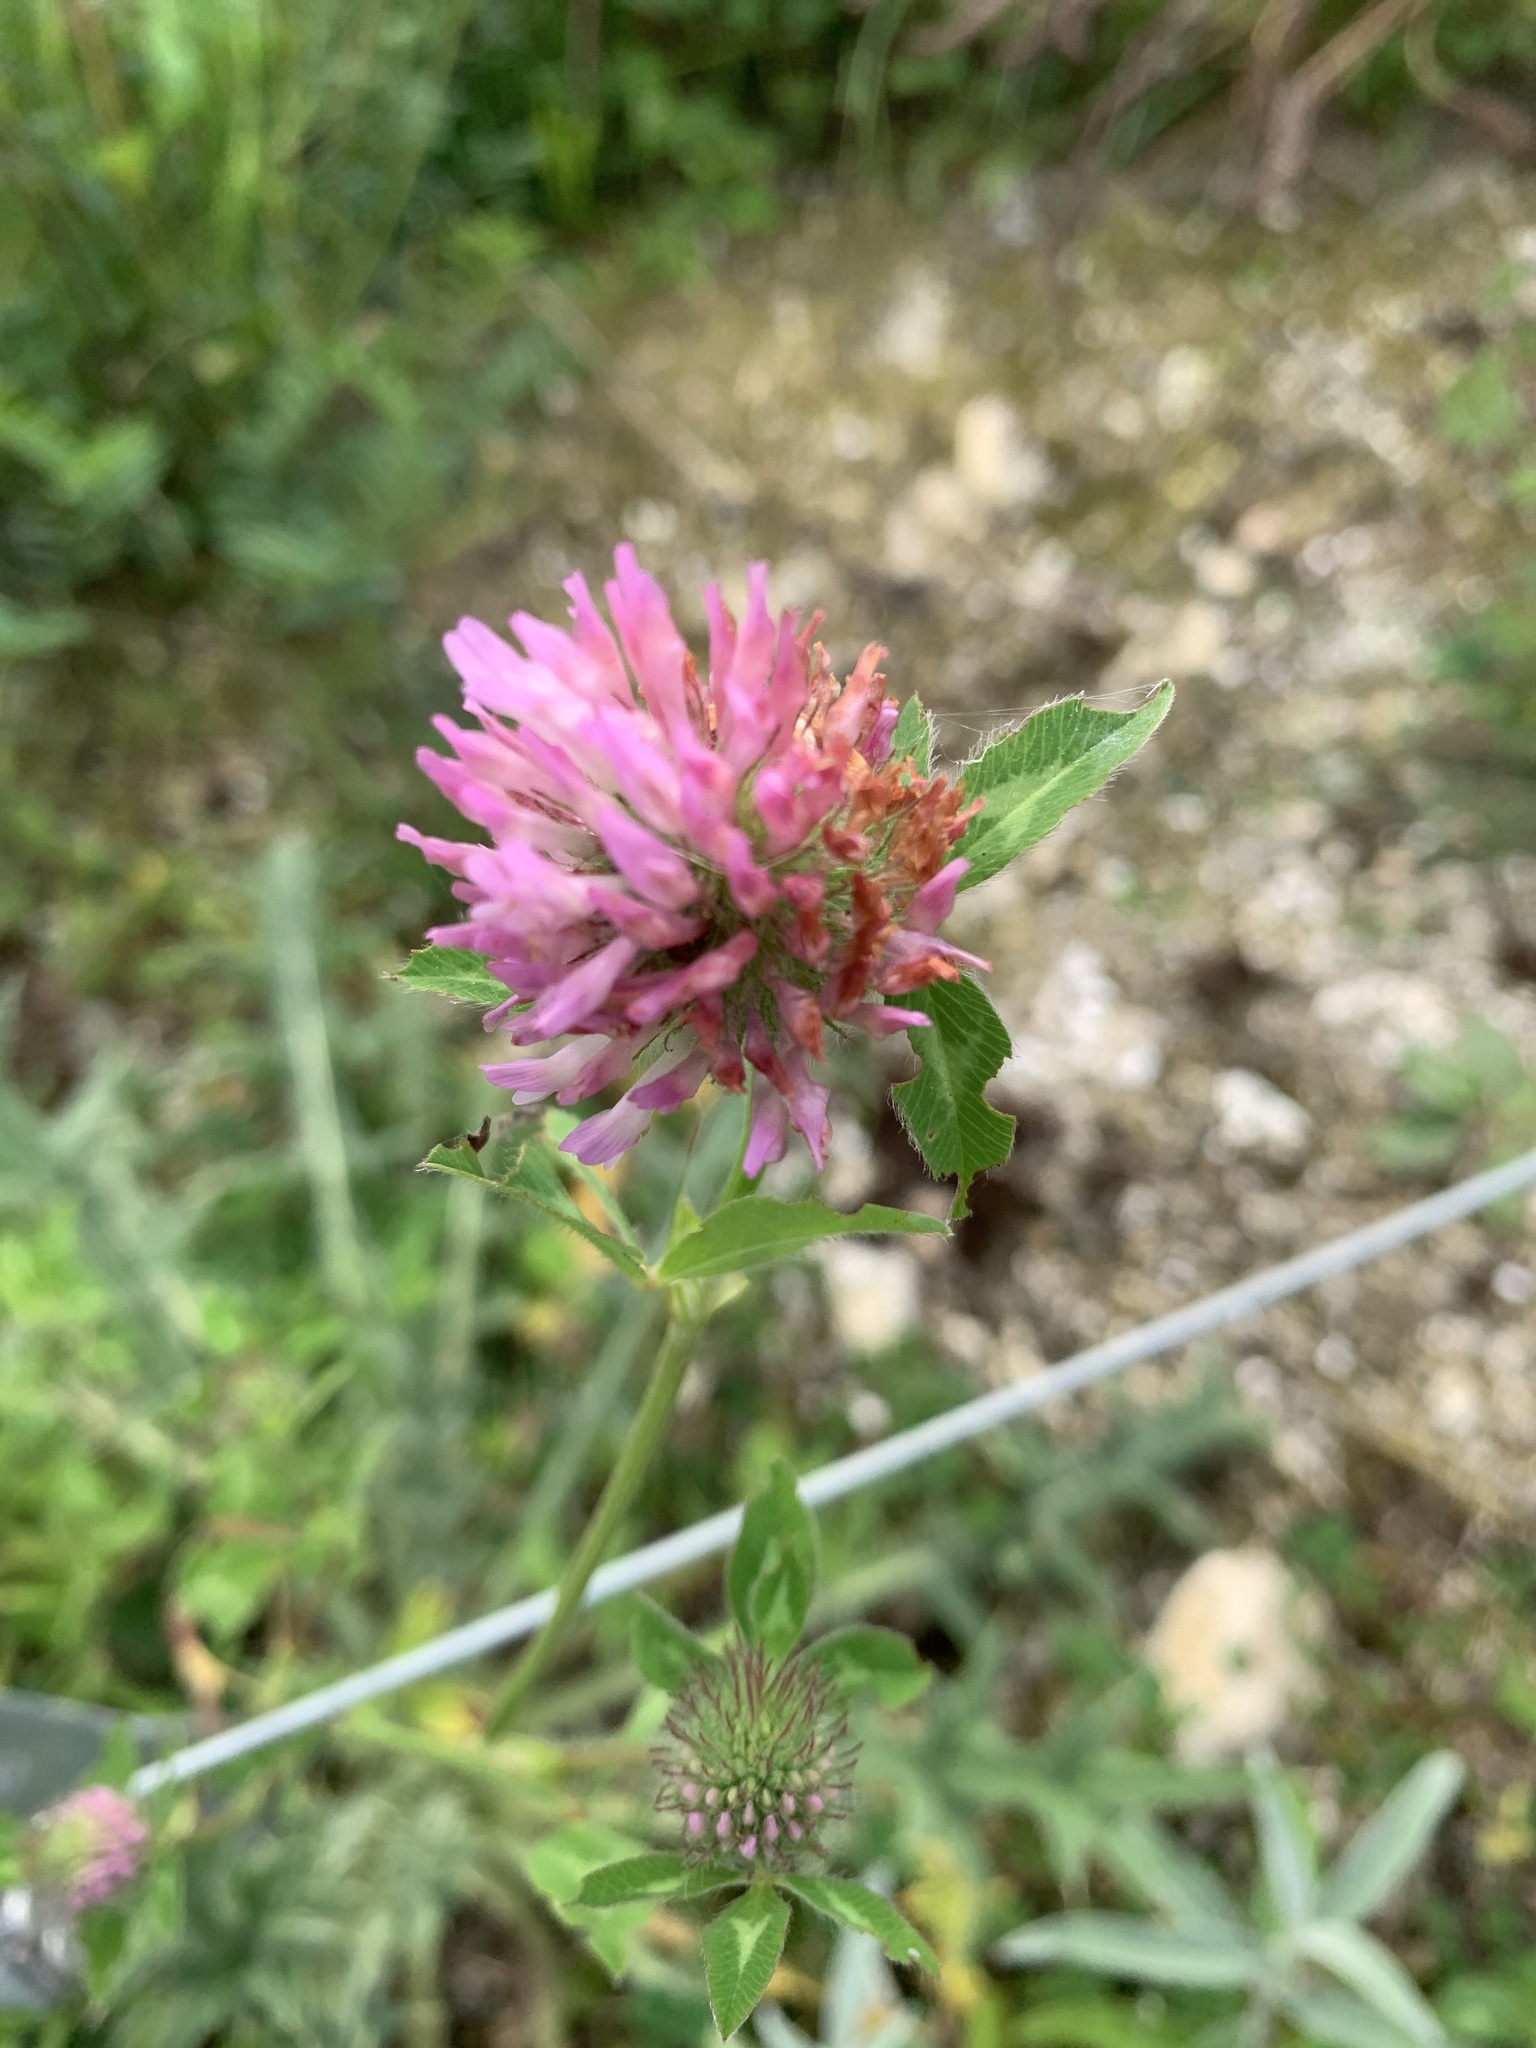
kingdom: Plantae
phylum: Tracheophyta
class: Magnoliopsida
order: Fabales
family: Fabaceae
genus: Trifolium
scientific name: Trifolium pratense
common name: Red clover
